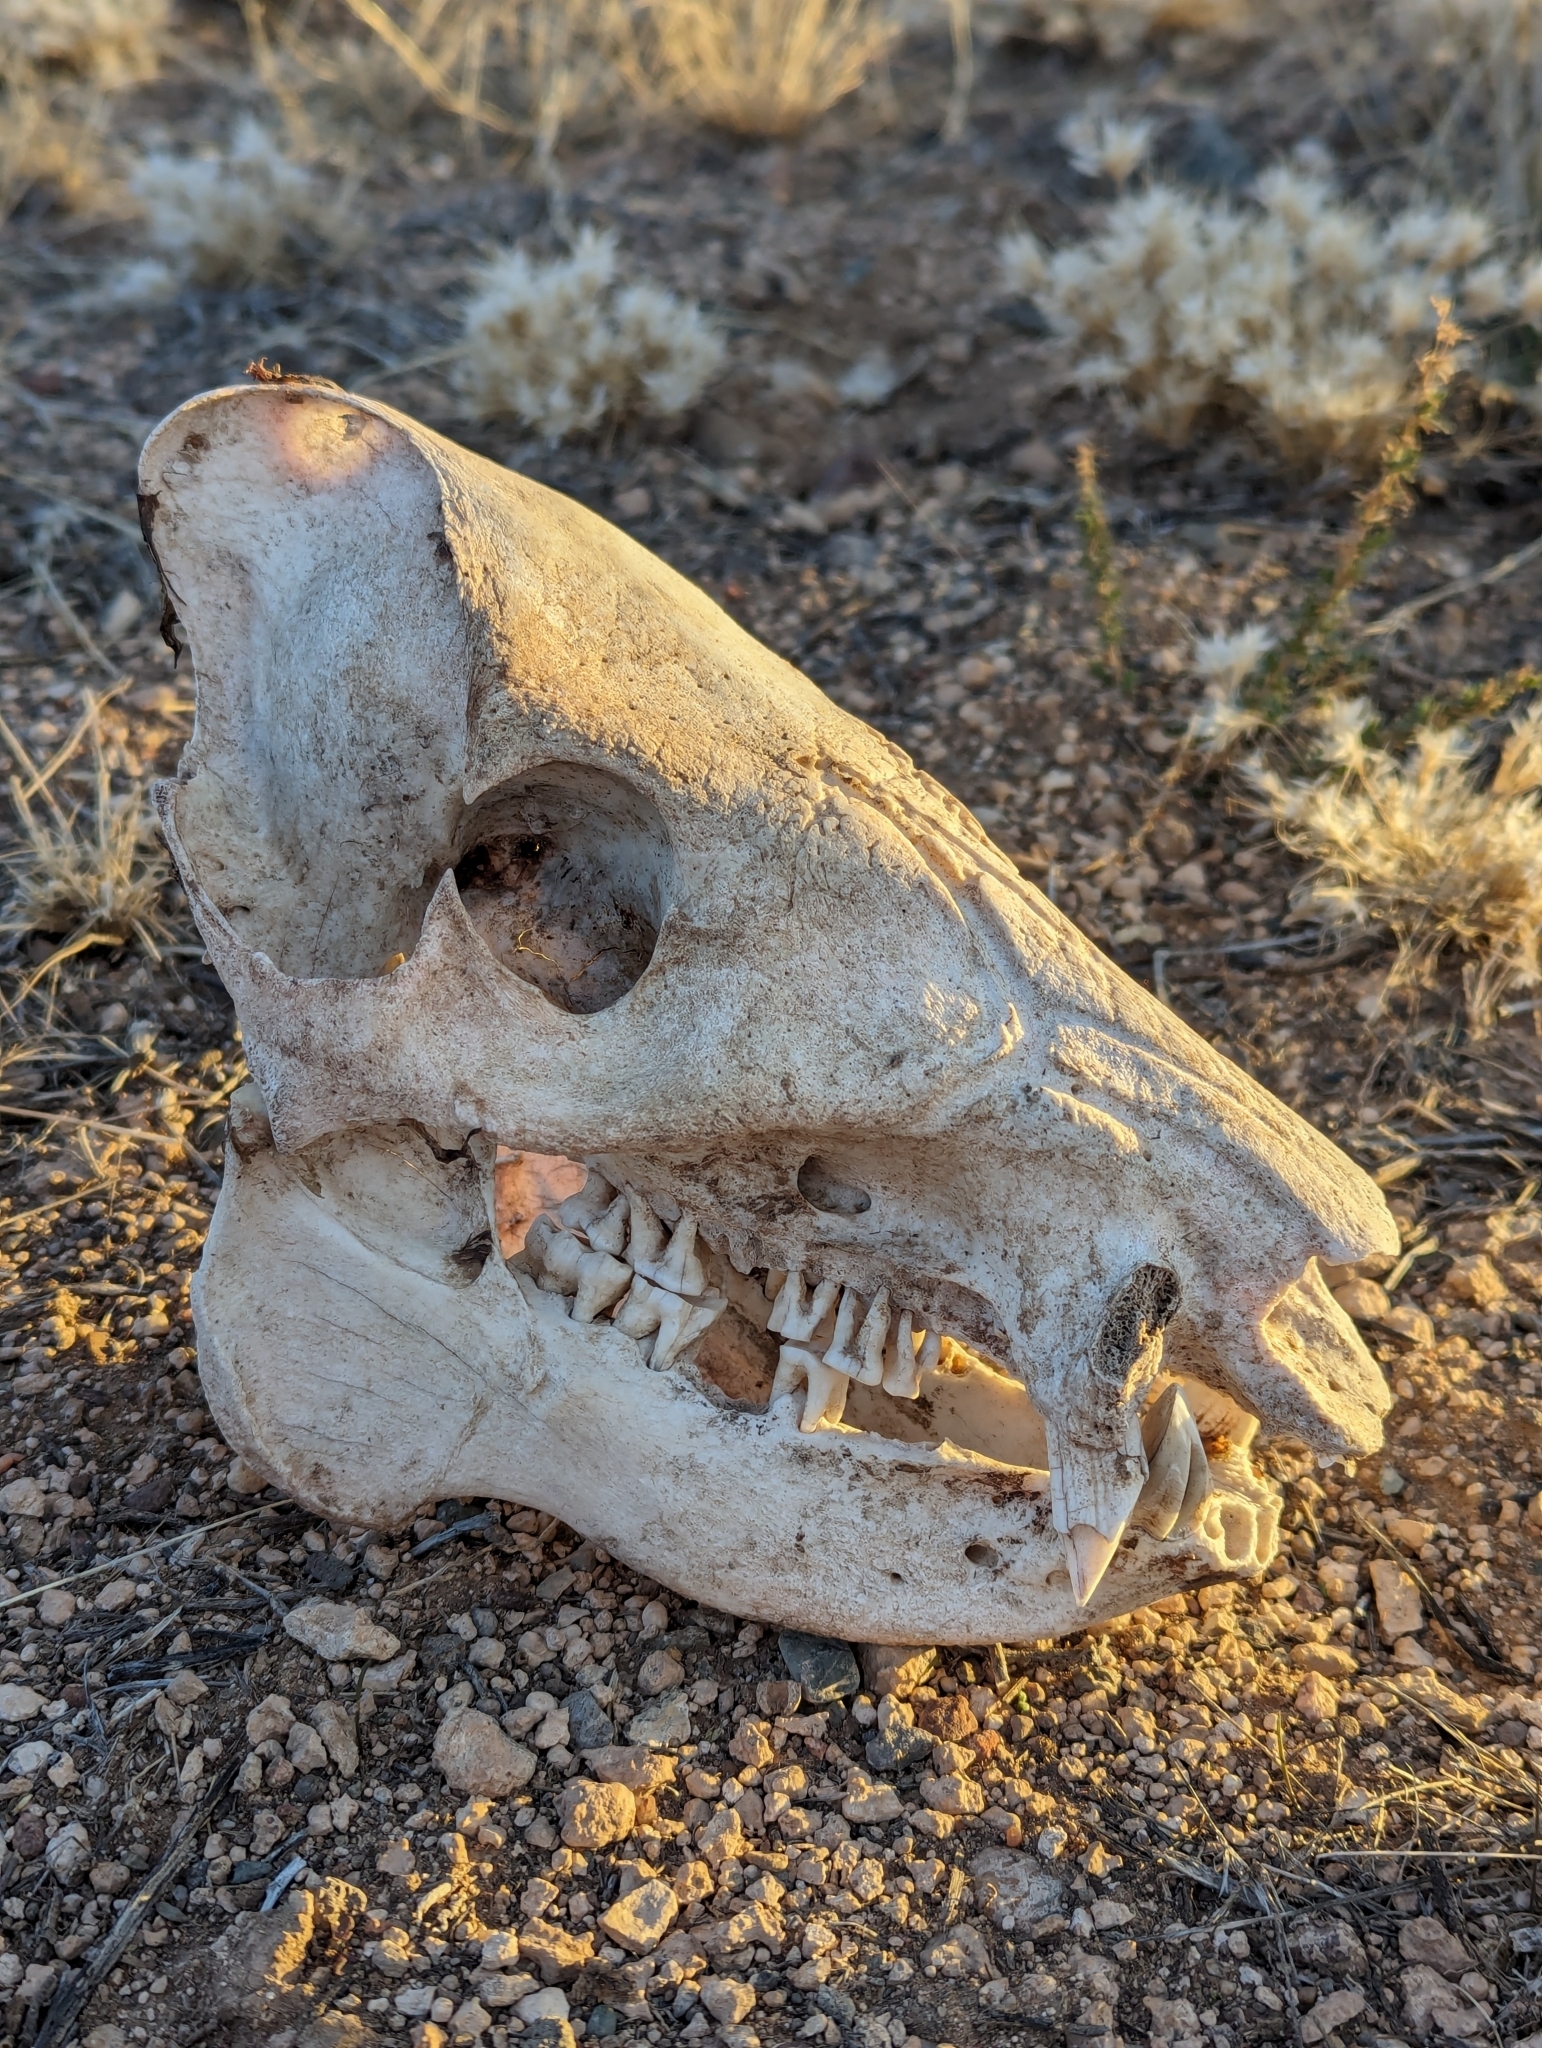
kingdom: Animalia
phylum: Chordata
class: Mammalia
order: Artiodactyla
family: Tayassuidae
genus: Pecari
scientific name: Pecari tajacu
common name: Collared peccary
